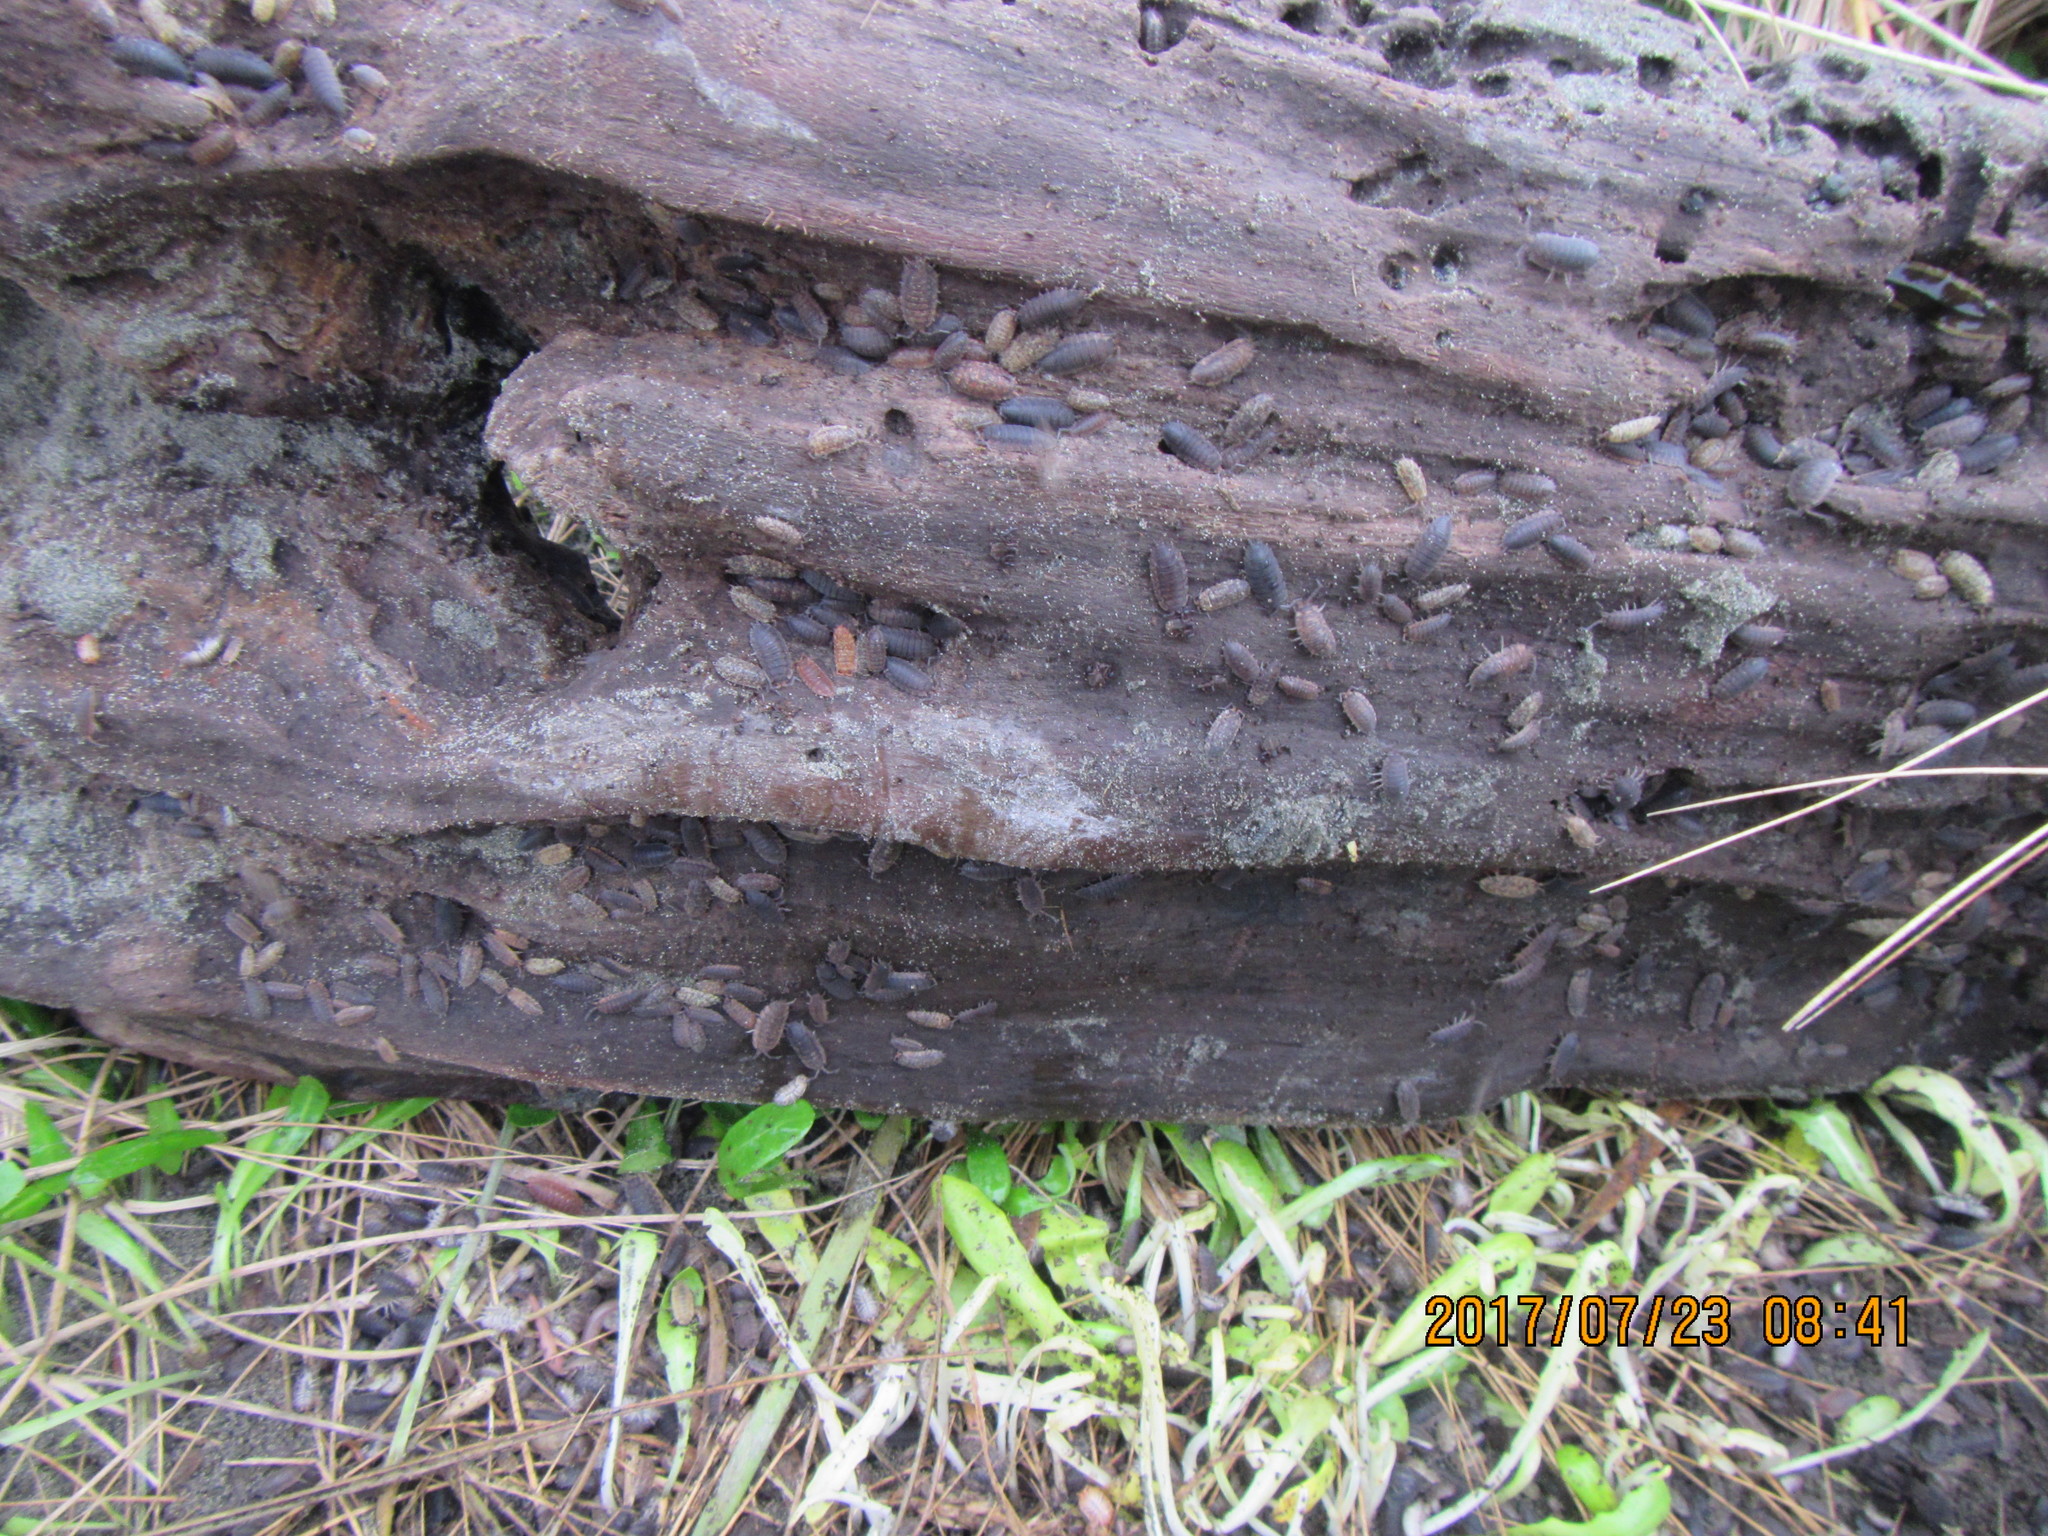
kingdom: Animalia
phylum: Arthropoda
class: Malacostraca
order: Isopoda
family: Porcellionidae
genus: Porcellio
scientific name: Porcellio scaber
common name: Common rough woodlouse
